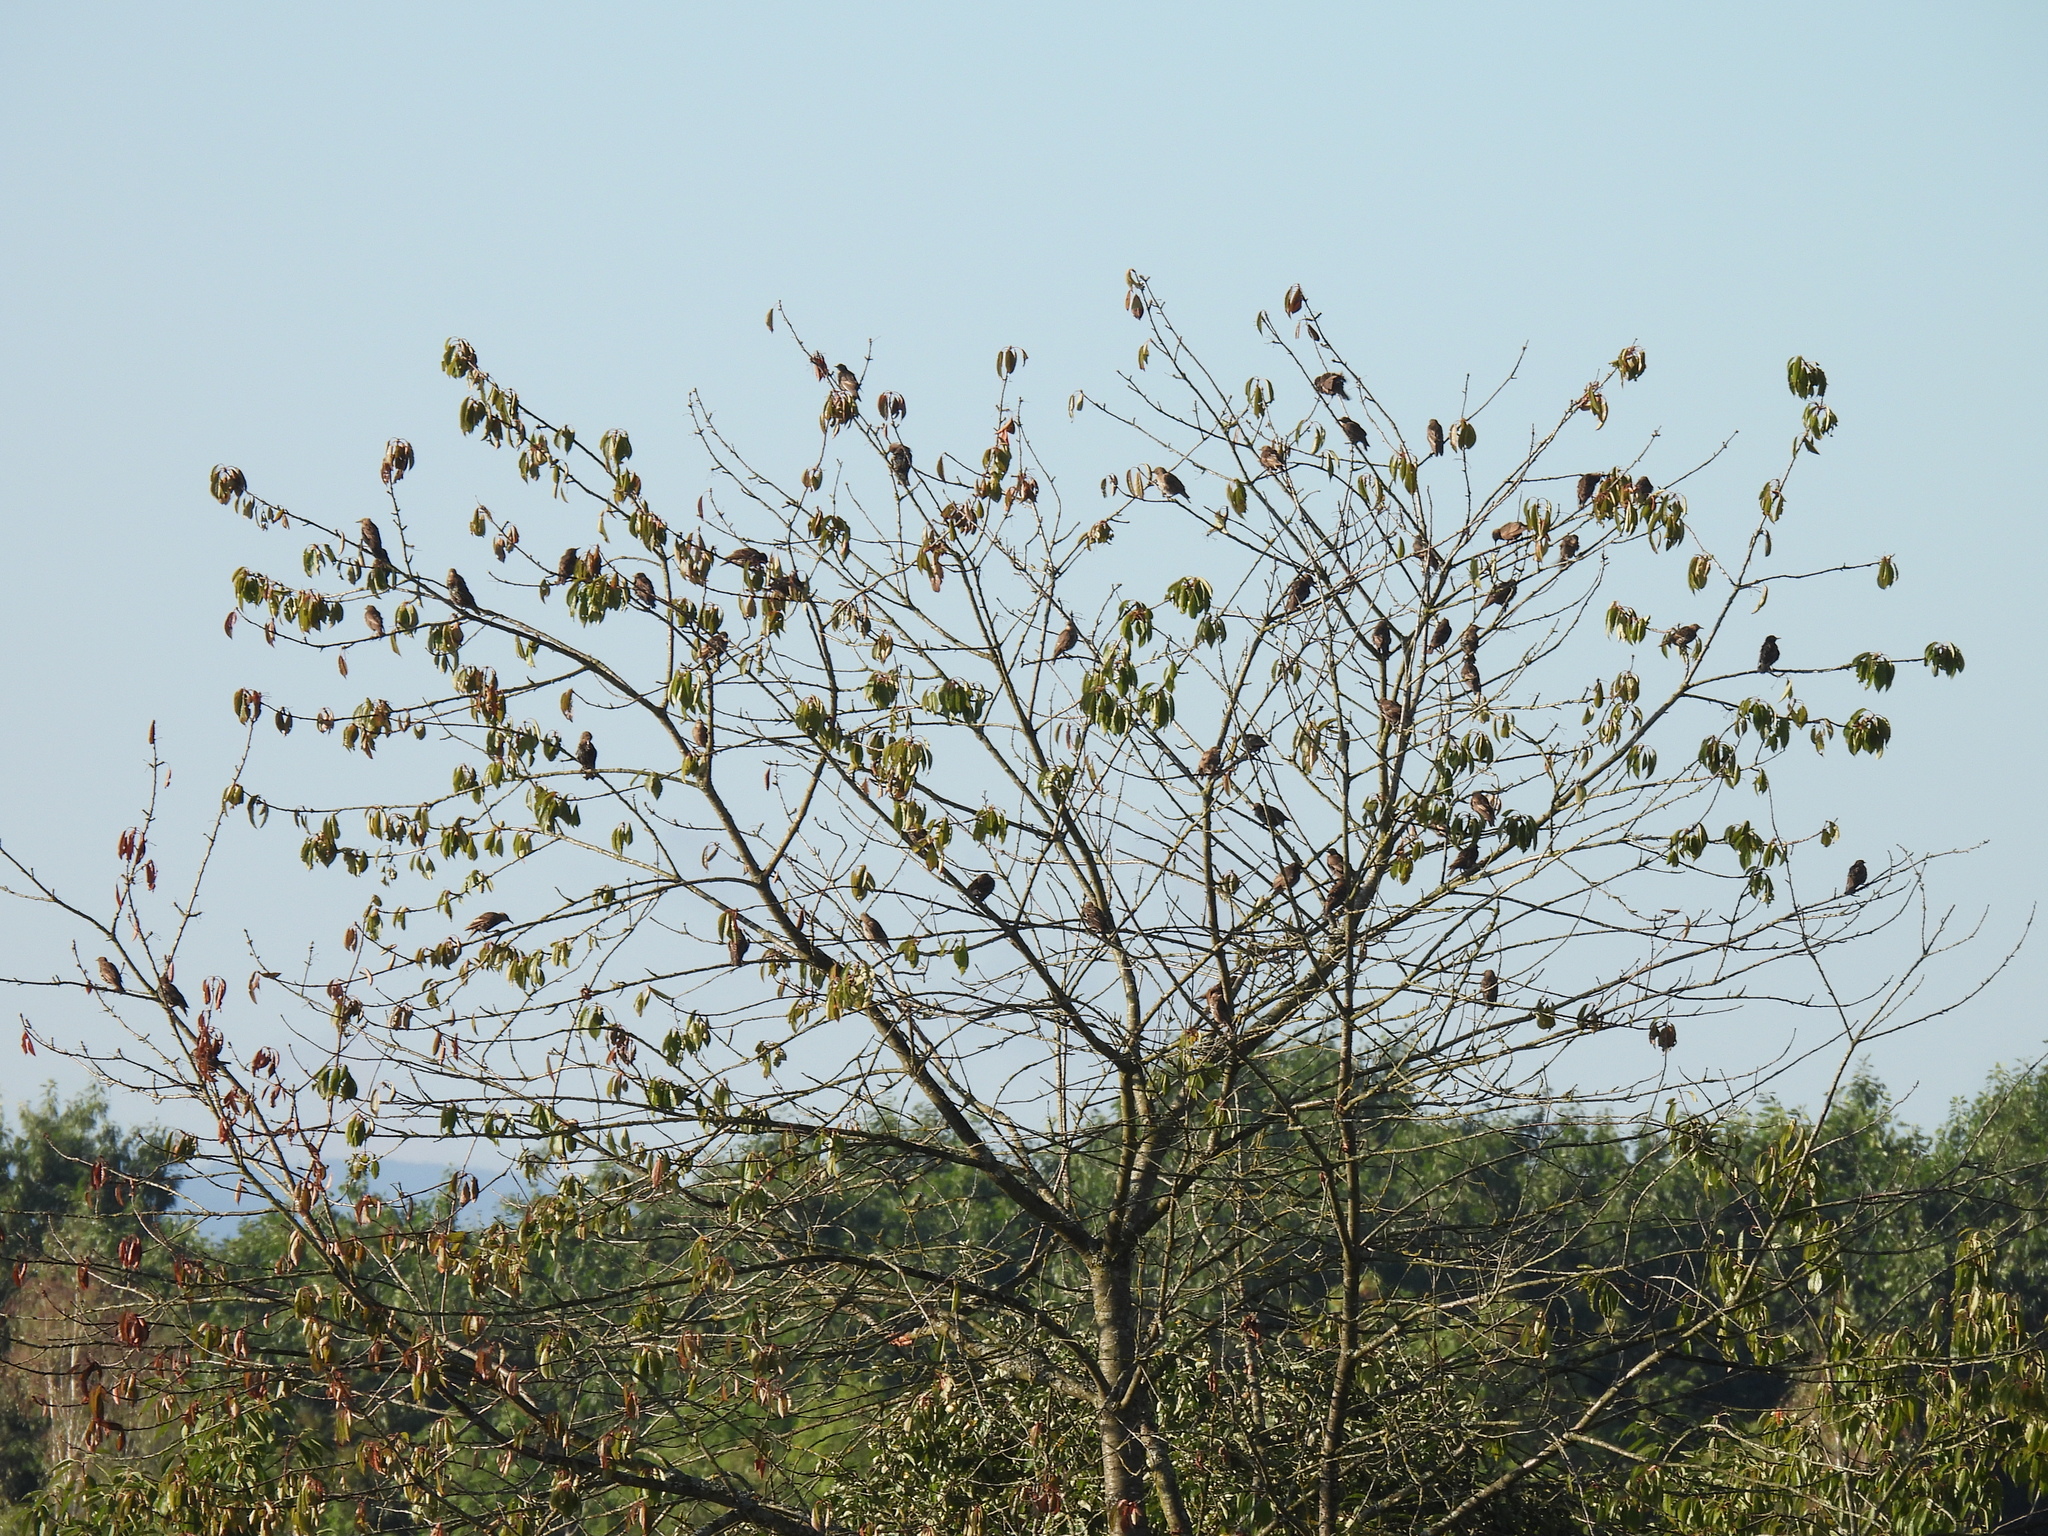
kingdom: Animalia
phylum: Chordata
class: Aves
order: Passeriformes
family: Sturnidae
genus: Sturnus
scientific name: Sturnus vulgaris
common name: Common starling
